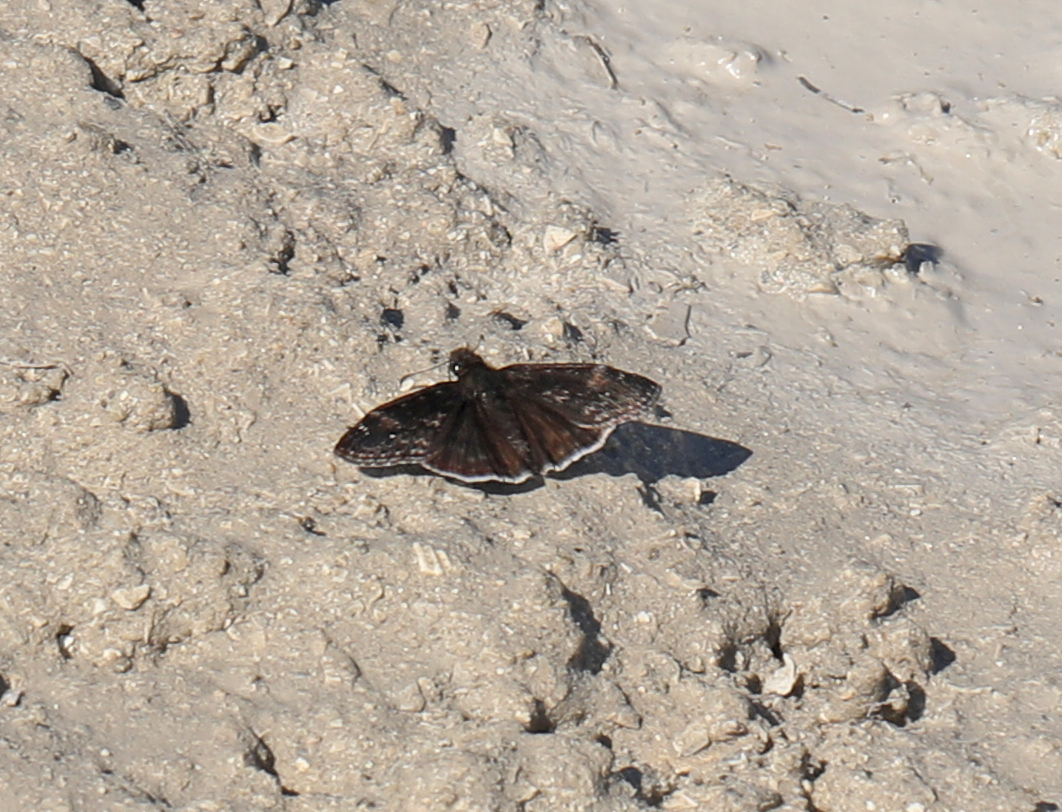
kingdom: Animalia
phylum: Arthropoda
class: Insecta
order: Lepidoptera
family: Hesperiidae
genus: Erynnis
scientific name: Erynnis zarucco
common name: Zarucco duskywing
